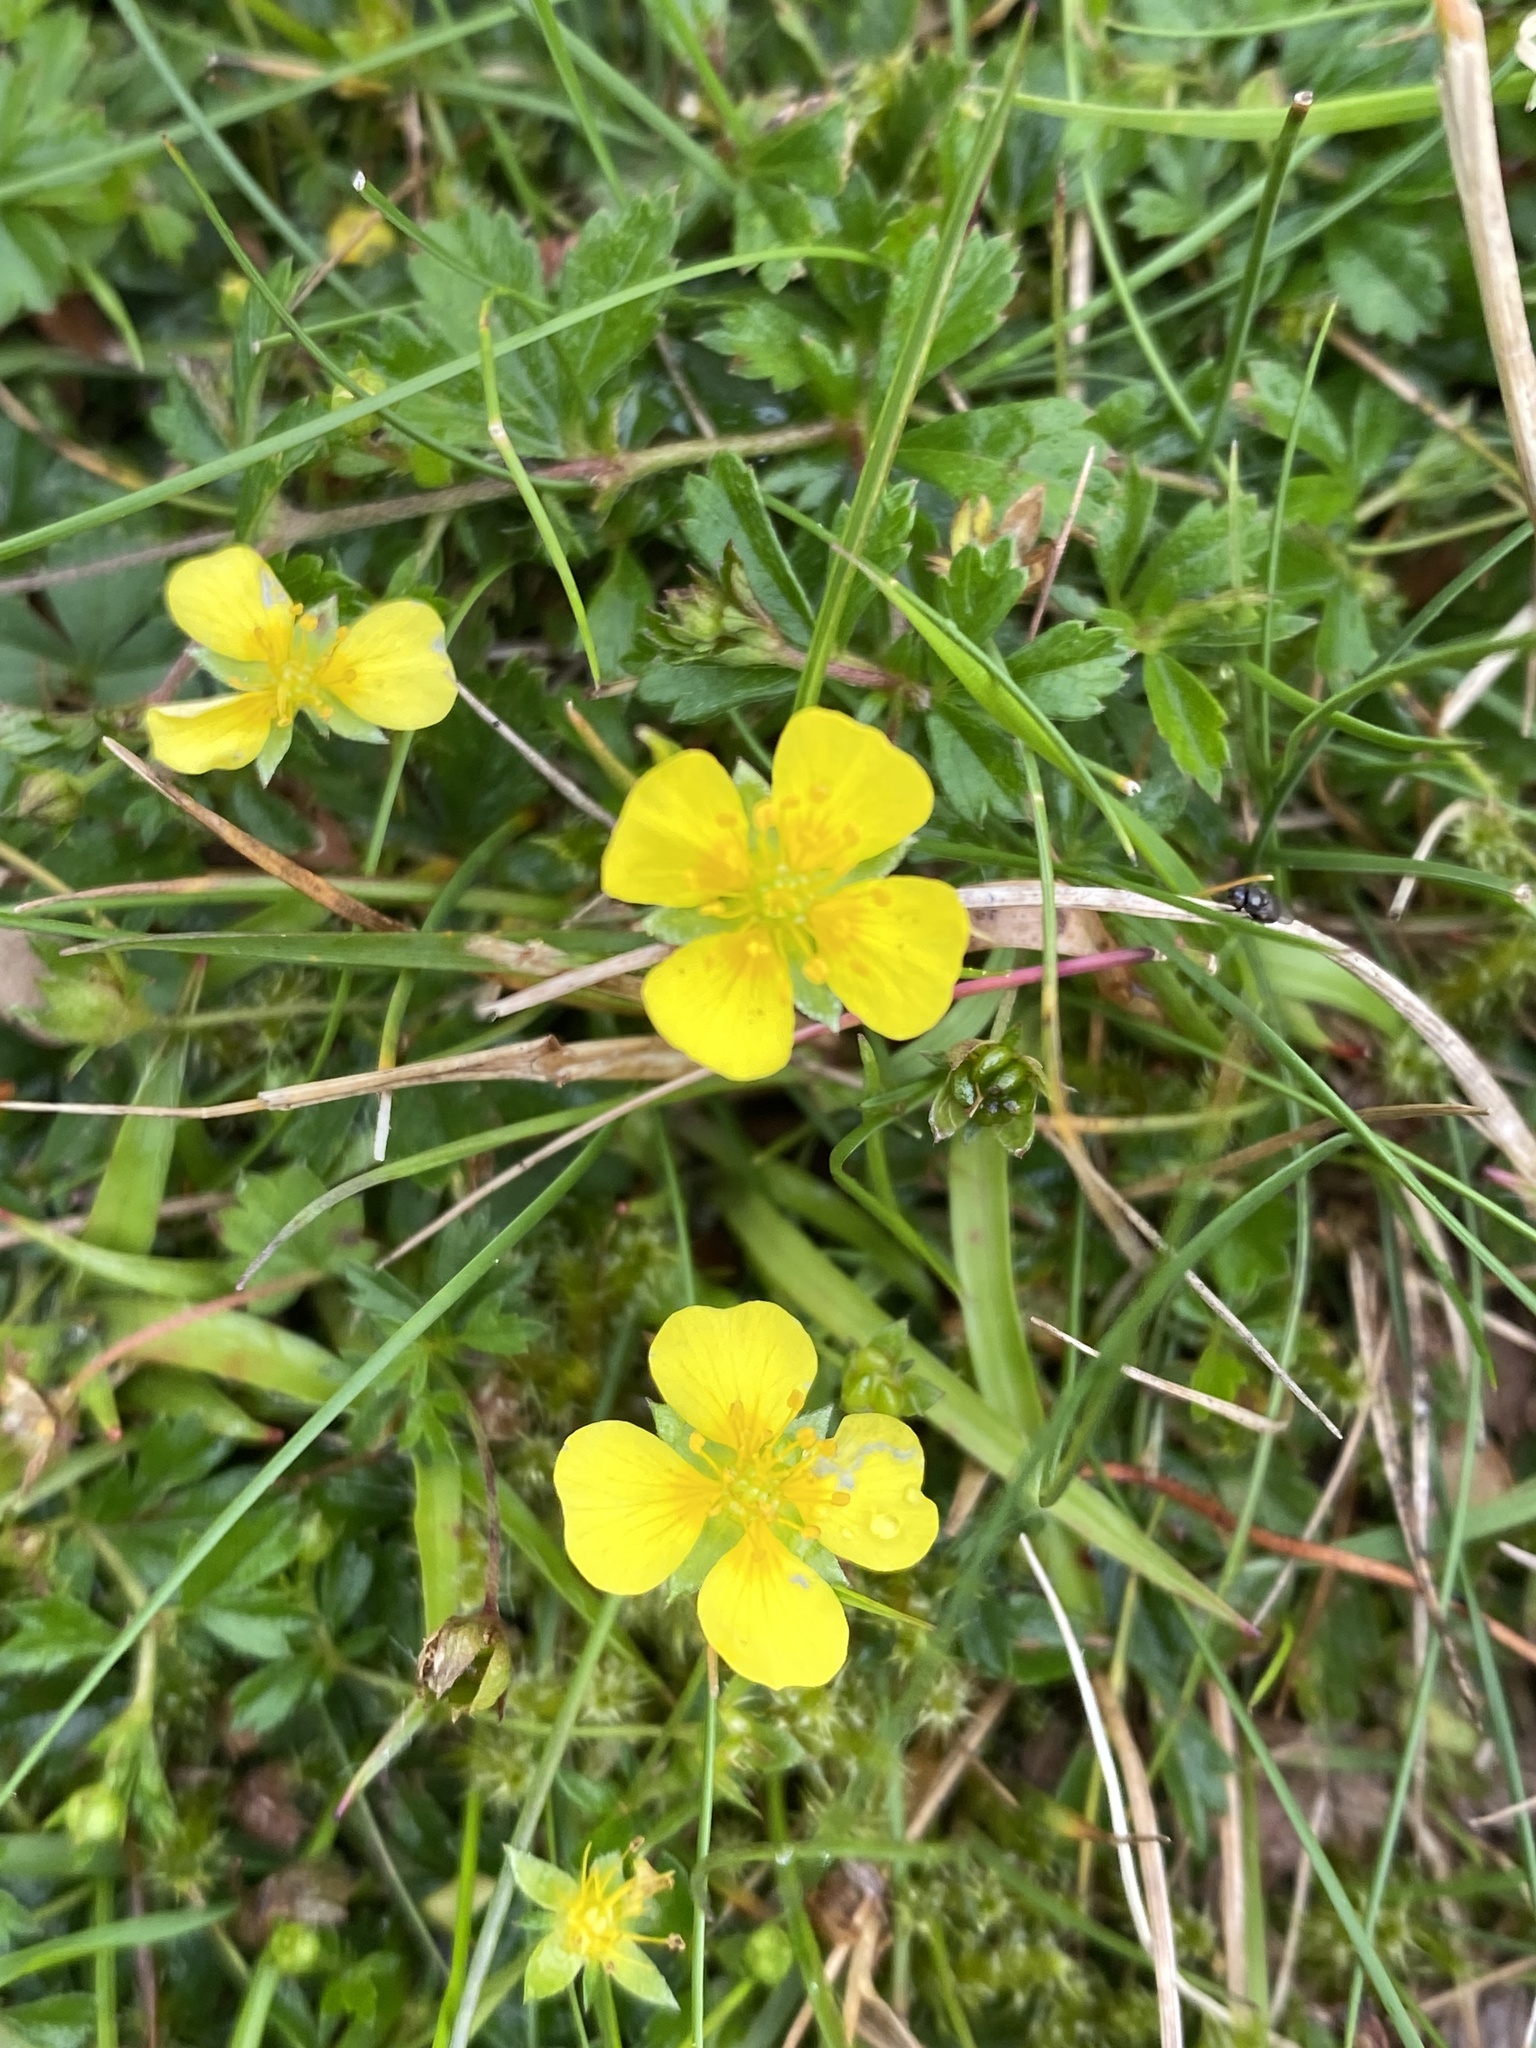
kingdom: Plantae
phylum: Tracheophyta
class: Magnoliopsida
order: Rosales
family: Rosaceae
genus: Potentilla
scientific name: Potentilla erecta
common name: Tormentil
